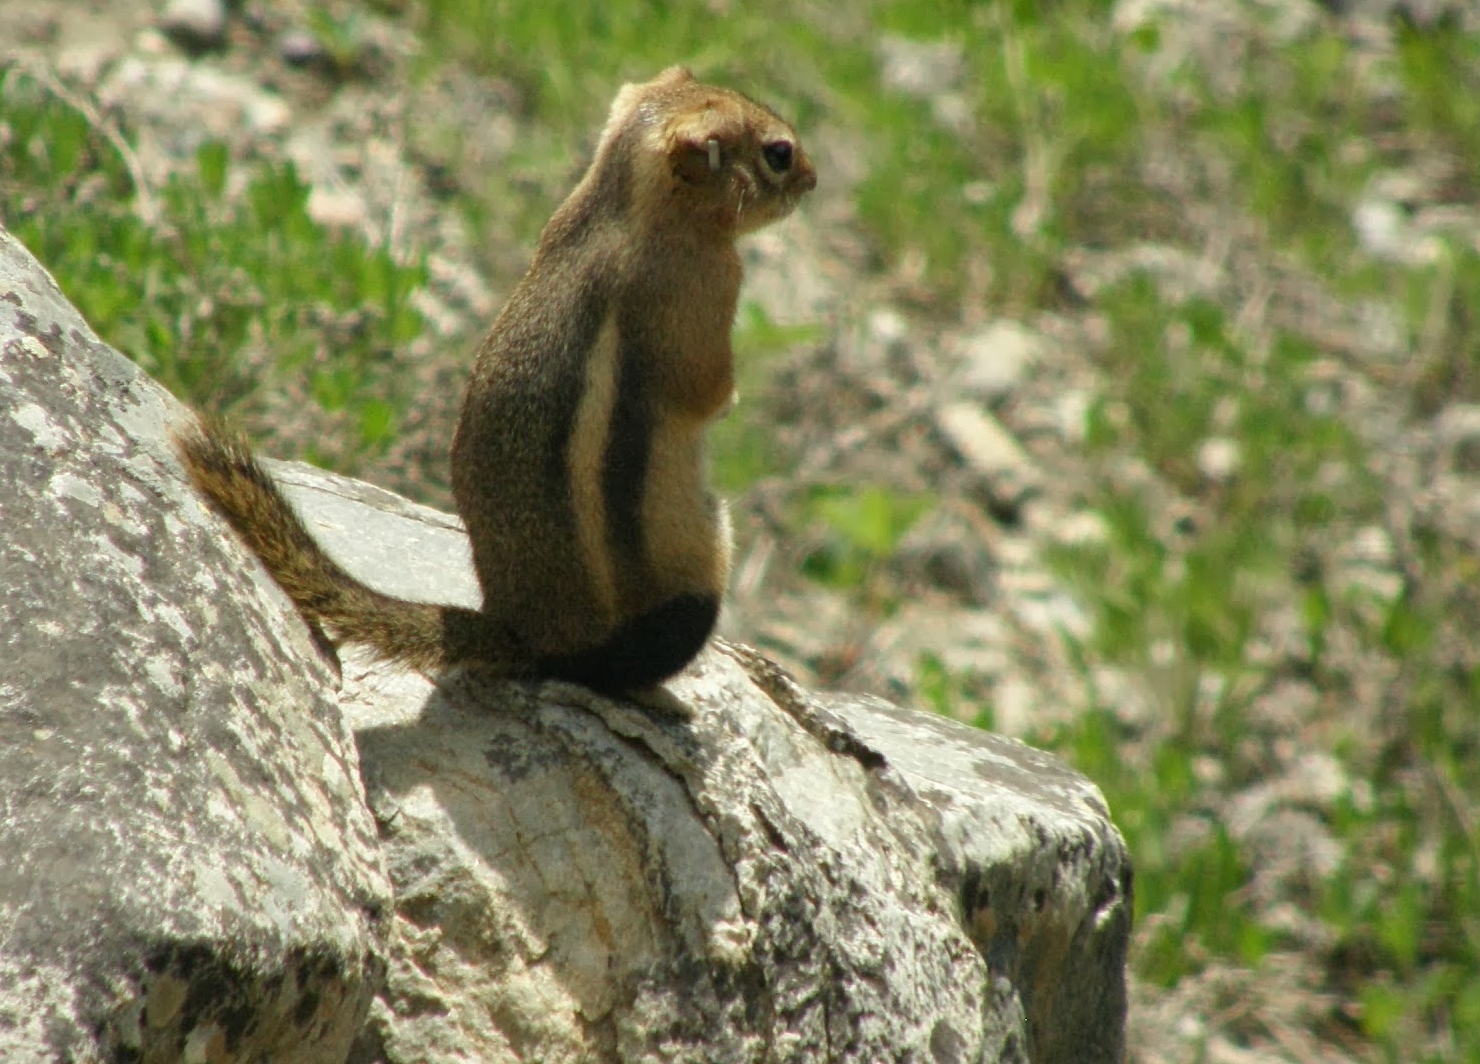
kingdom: Animalia
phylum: Chordata
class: Mammalia
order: Rodentia
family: Sciuridae
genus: Callospermophilus
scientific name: Callospermophilus lateralis
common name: Golden-mantled ground squirrel
